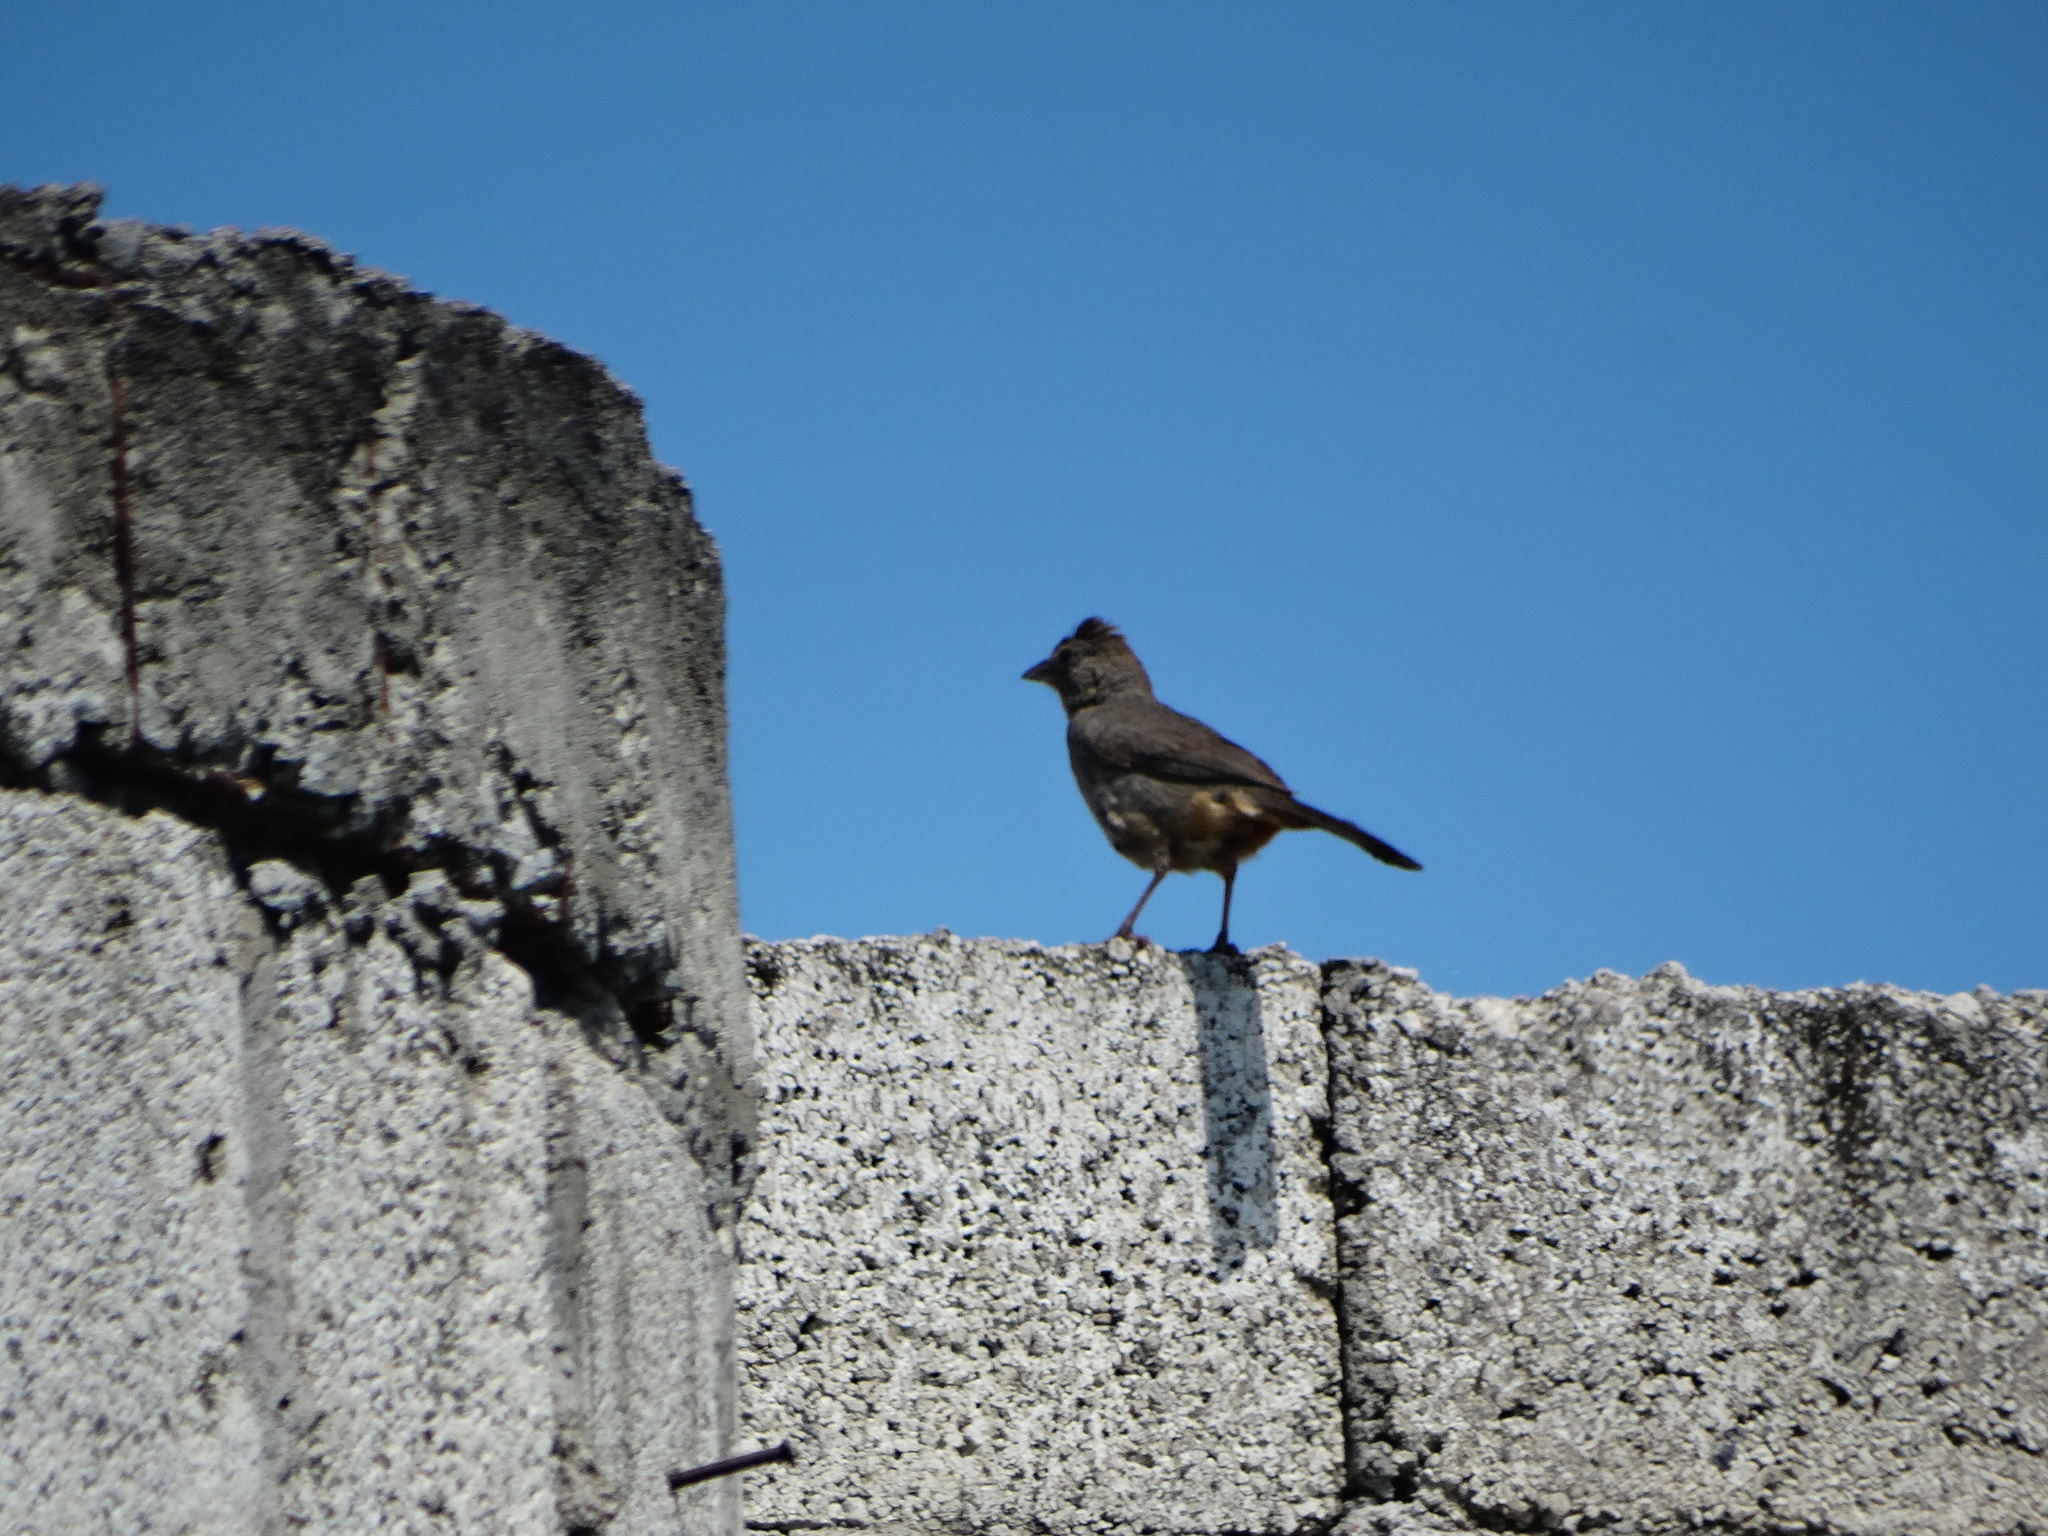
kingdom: Animalia
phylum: Chordata
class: Aves
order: Passeriformes
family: Passerellidae
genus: Melozone
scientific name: Melozone fusca
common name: Canyon towhee
